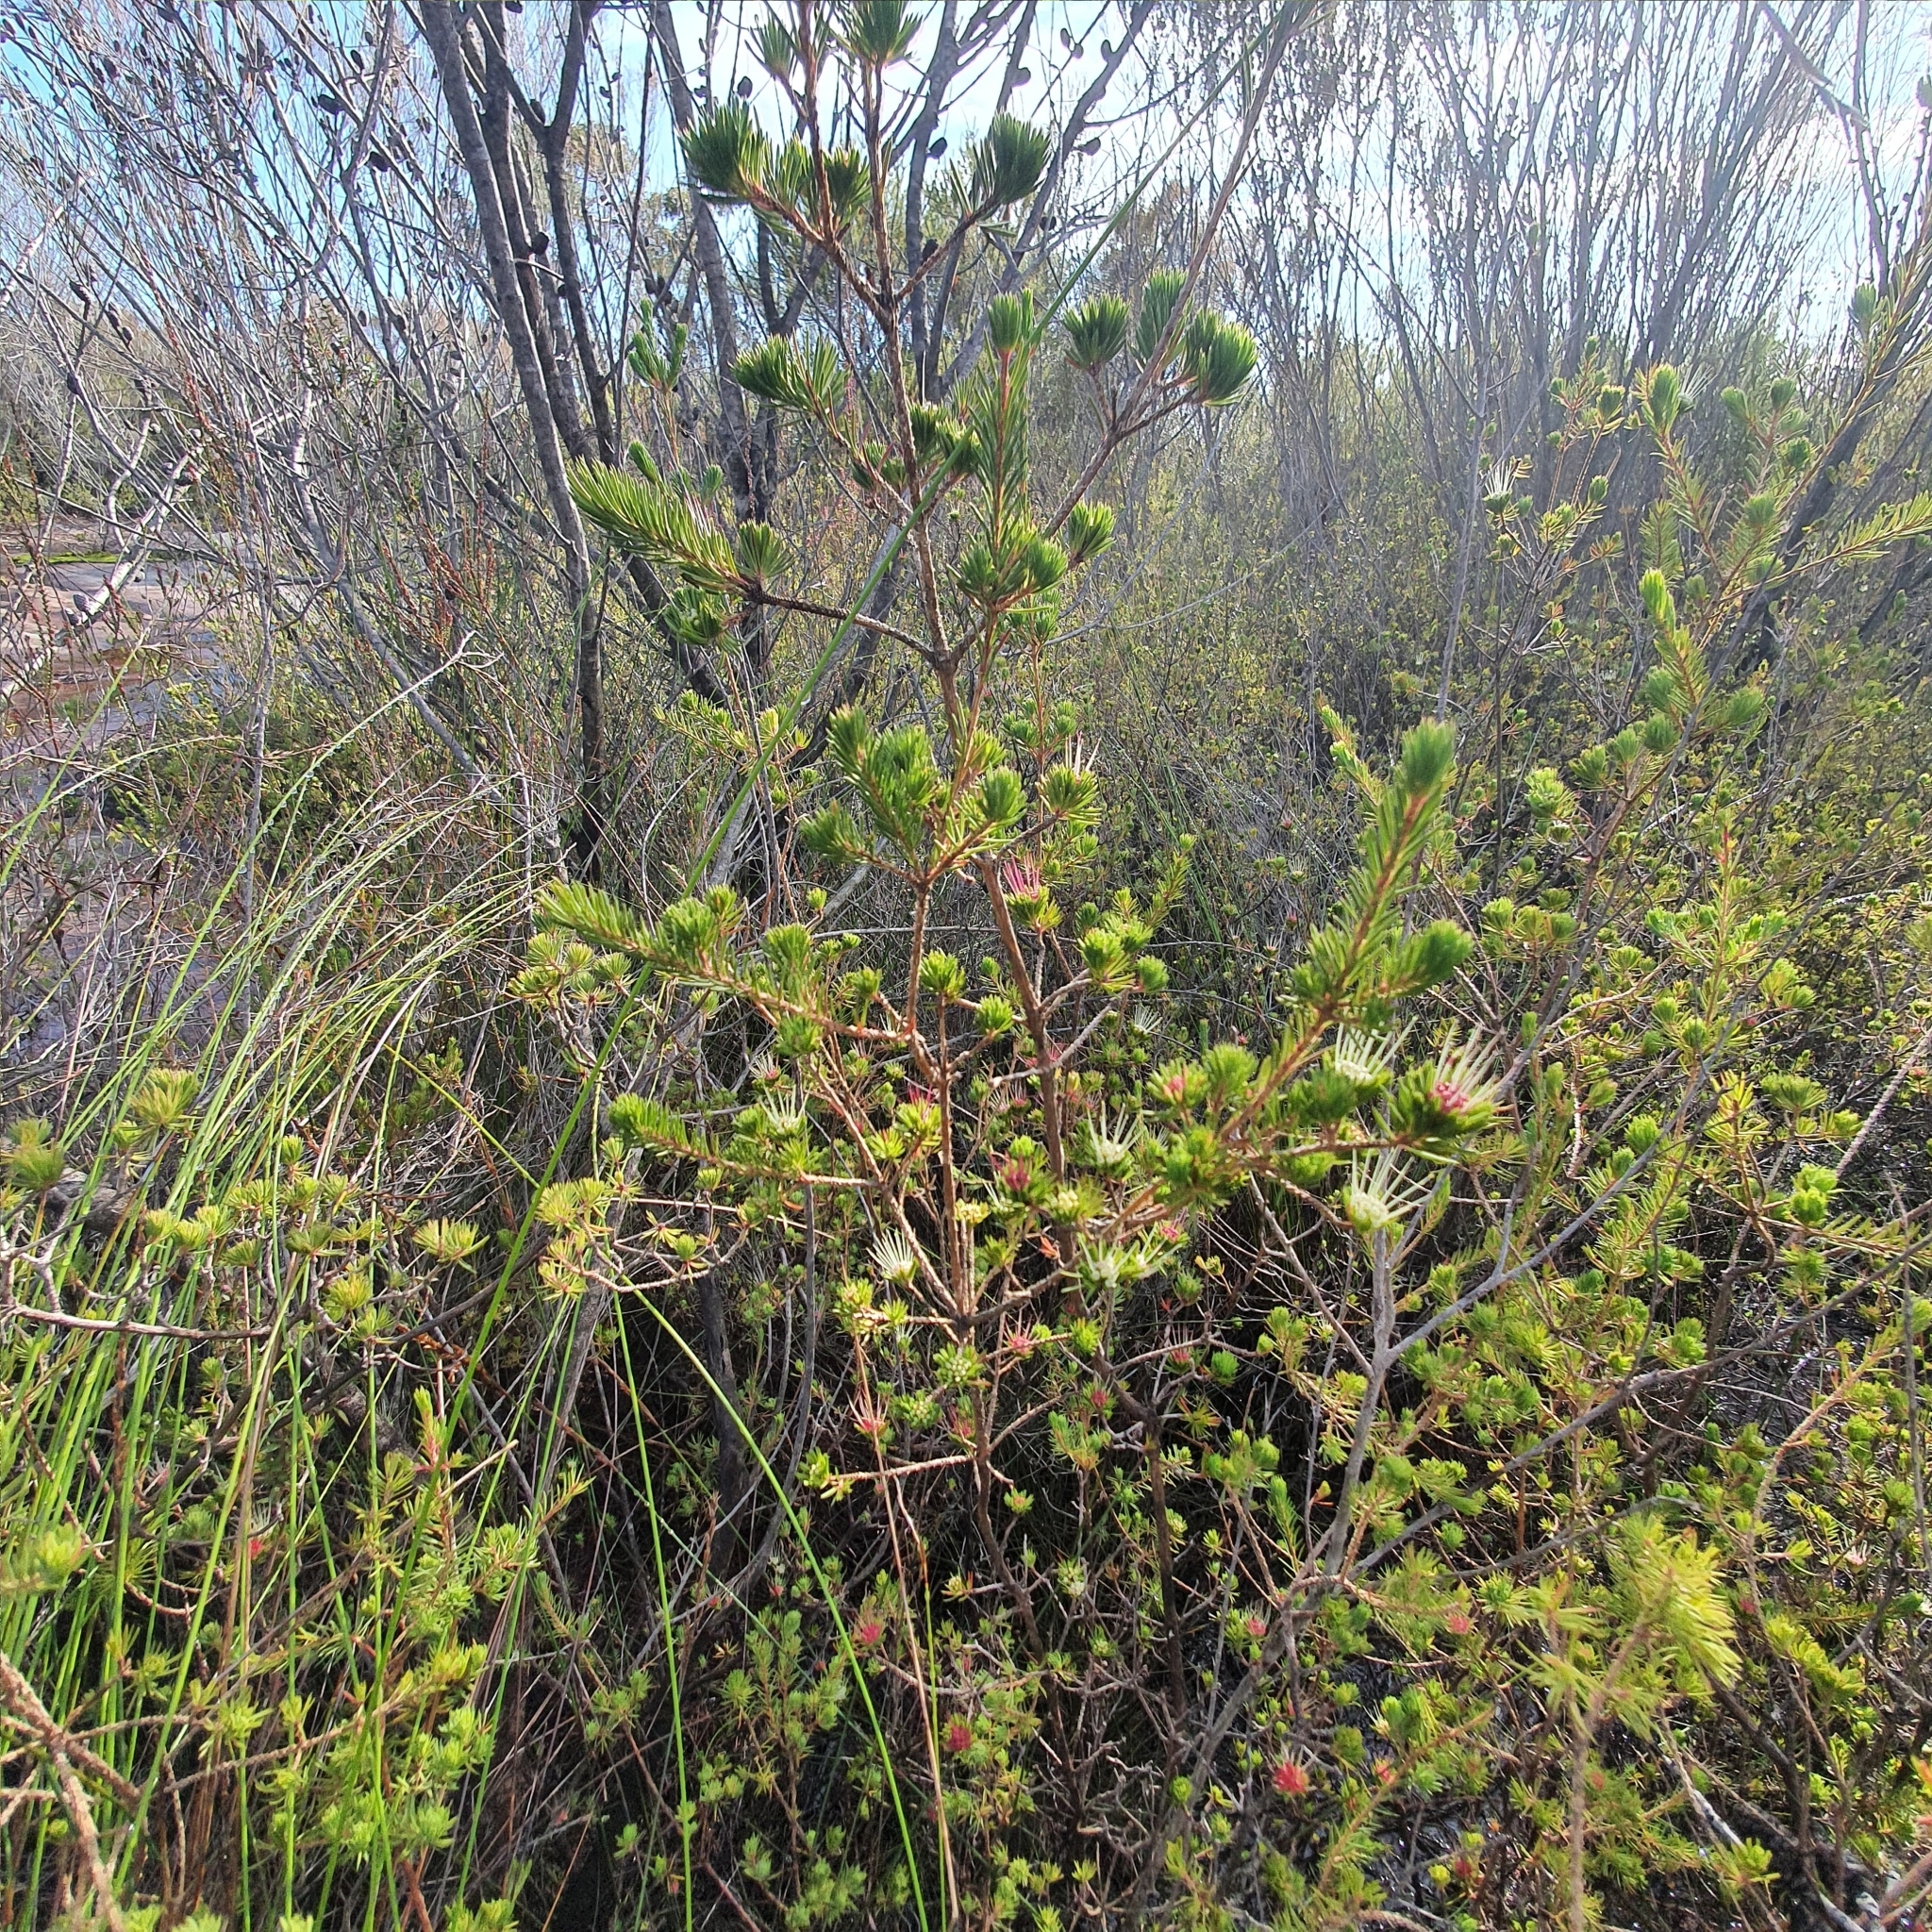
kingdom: Plantae
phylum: Tracheophyta
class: Magnoliopsida
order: Myrtales
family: Myrtaceae
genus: Darwinia
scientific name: Darwinia fascicularis
